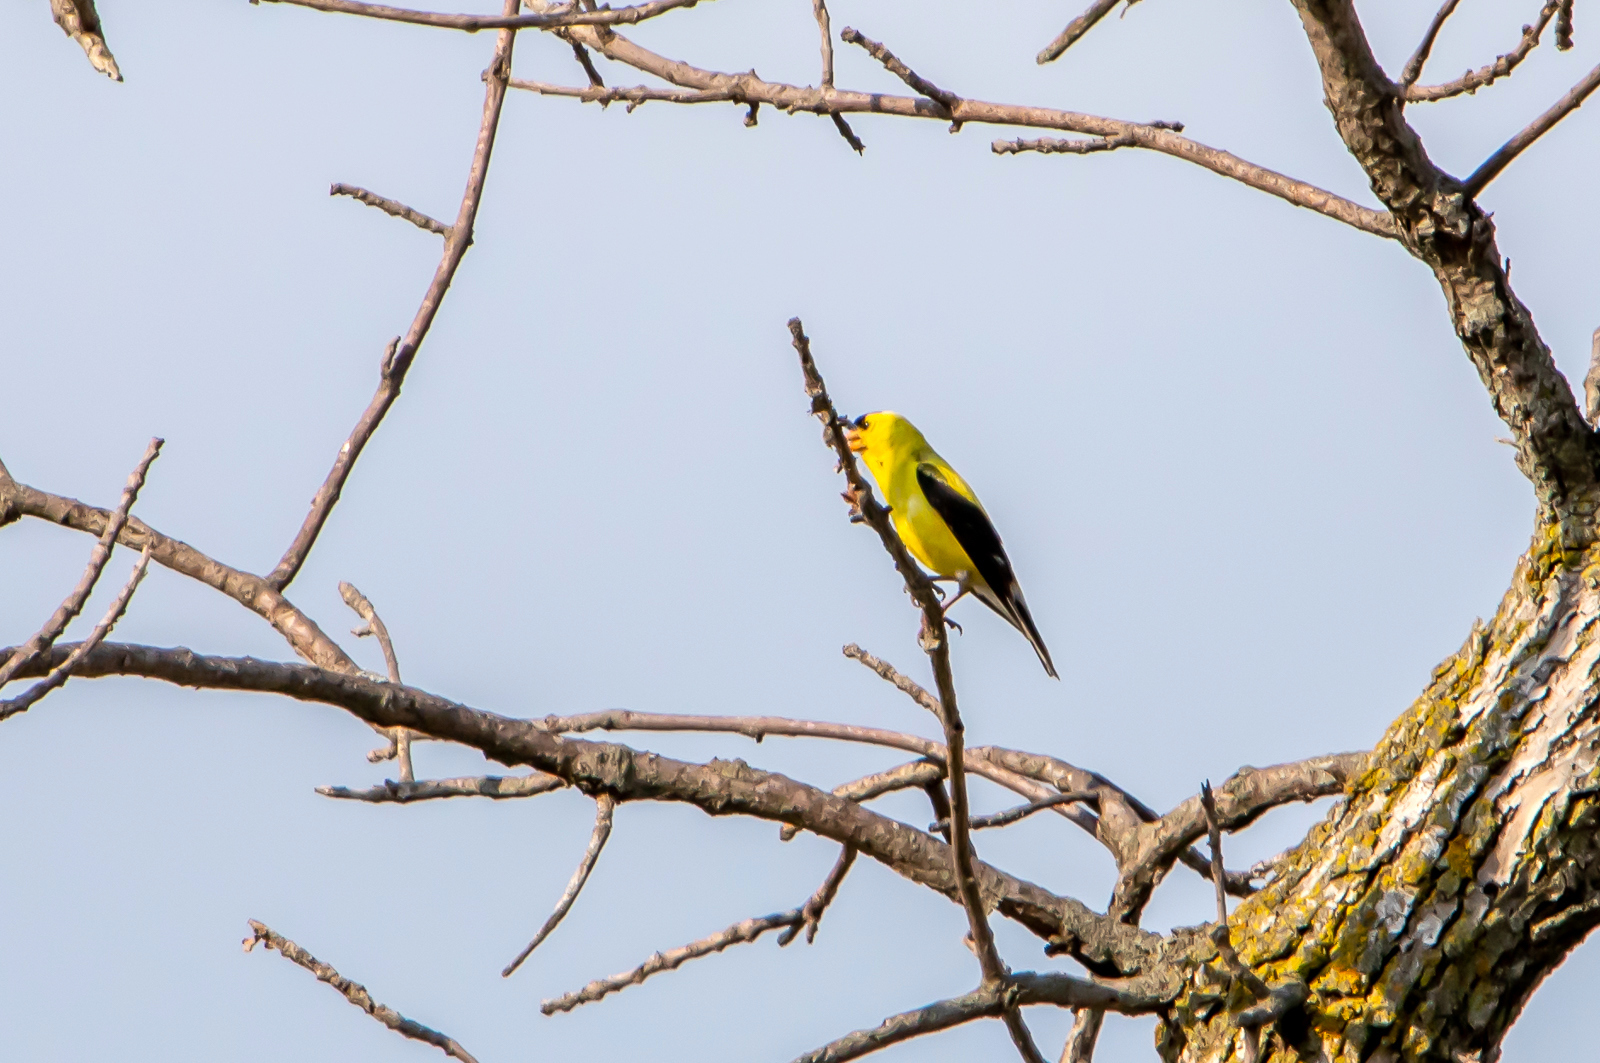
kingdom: Animalia
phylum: Chordata
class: Aves
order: Passeriformes
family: Fringillidae
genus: Spinus
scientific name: Spinus tristis
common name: American goldfinch
